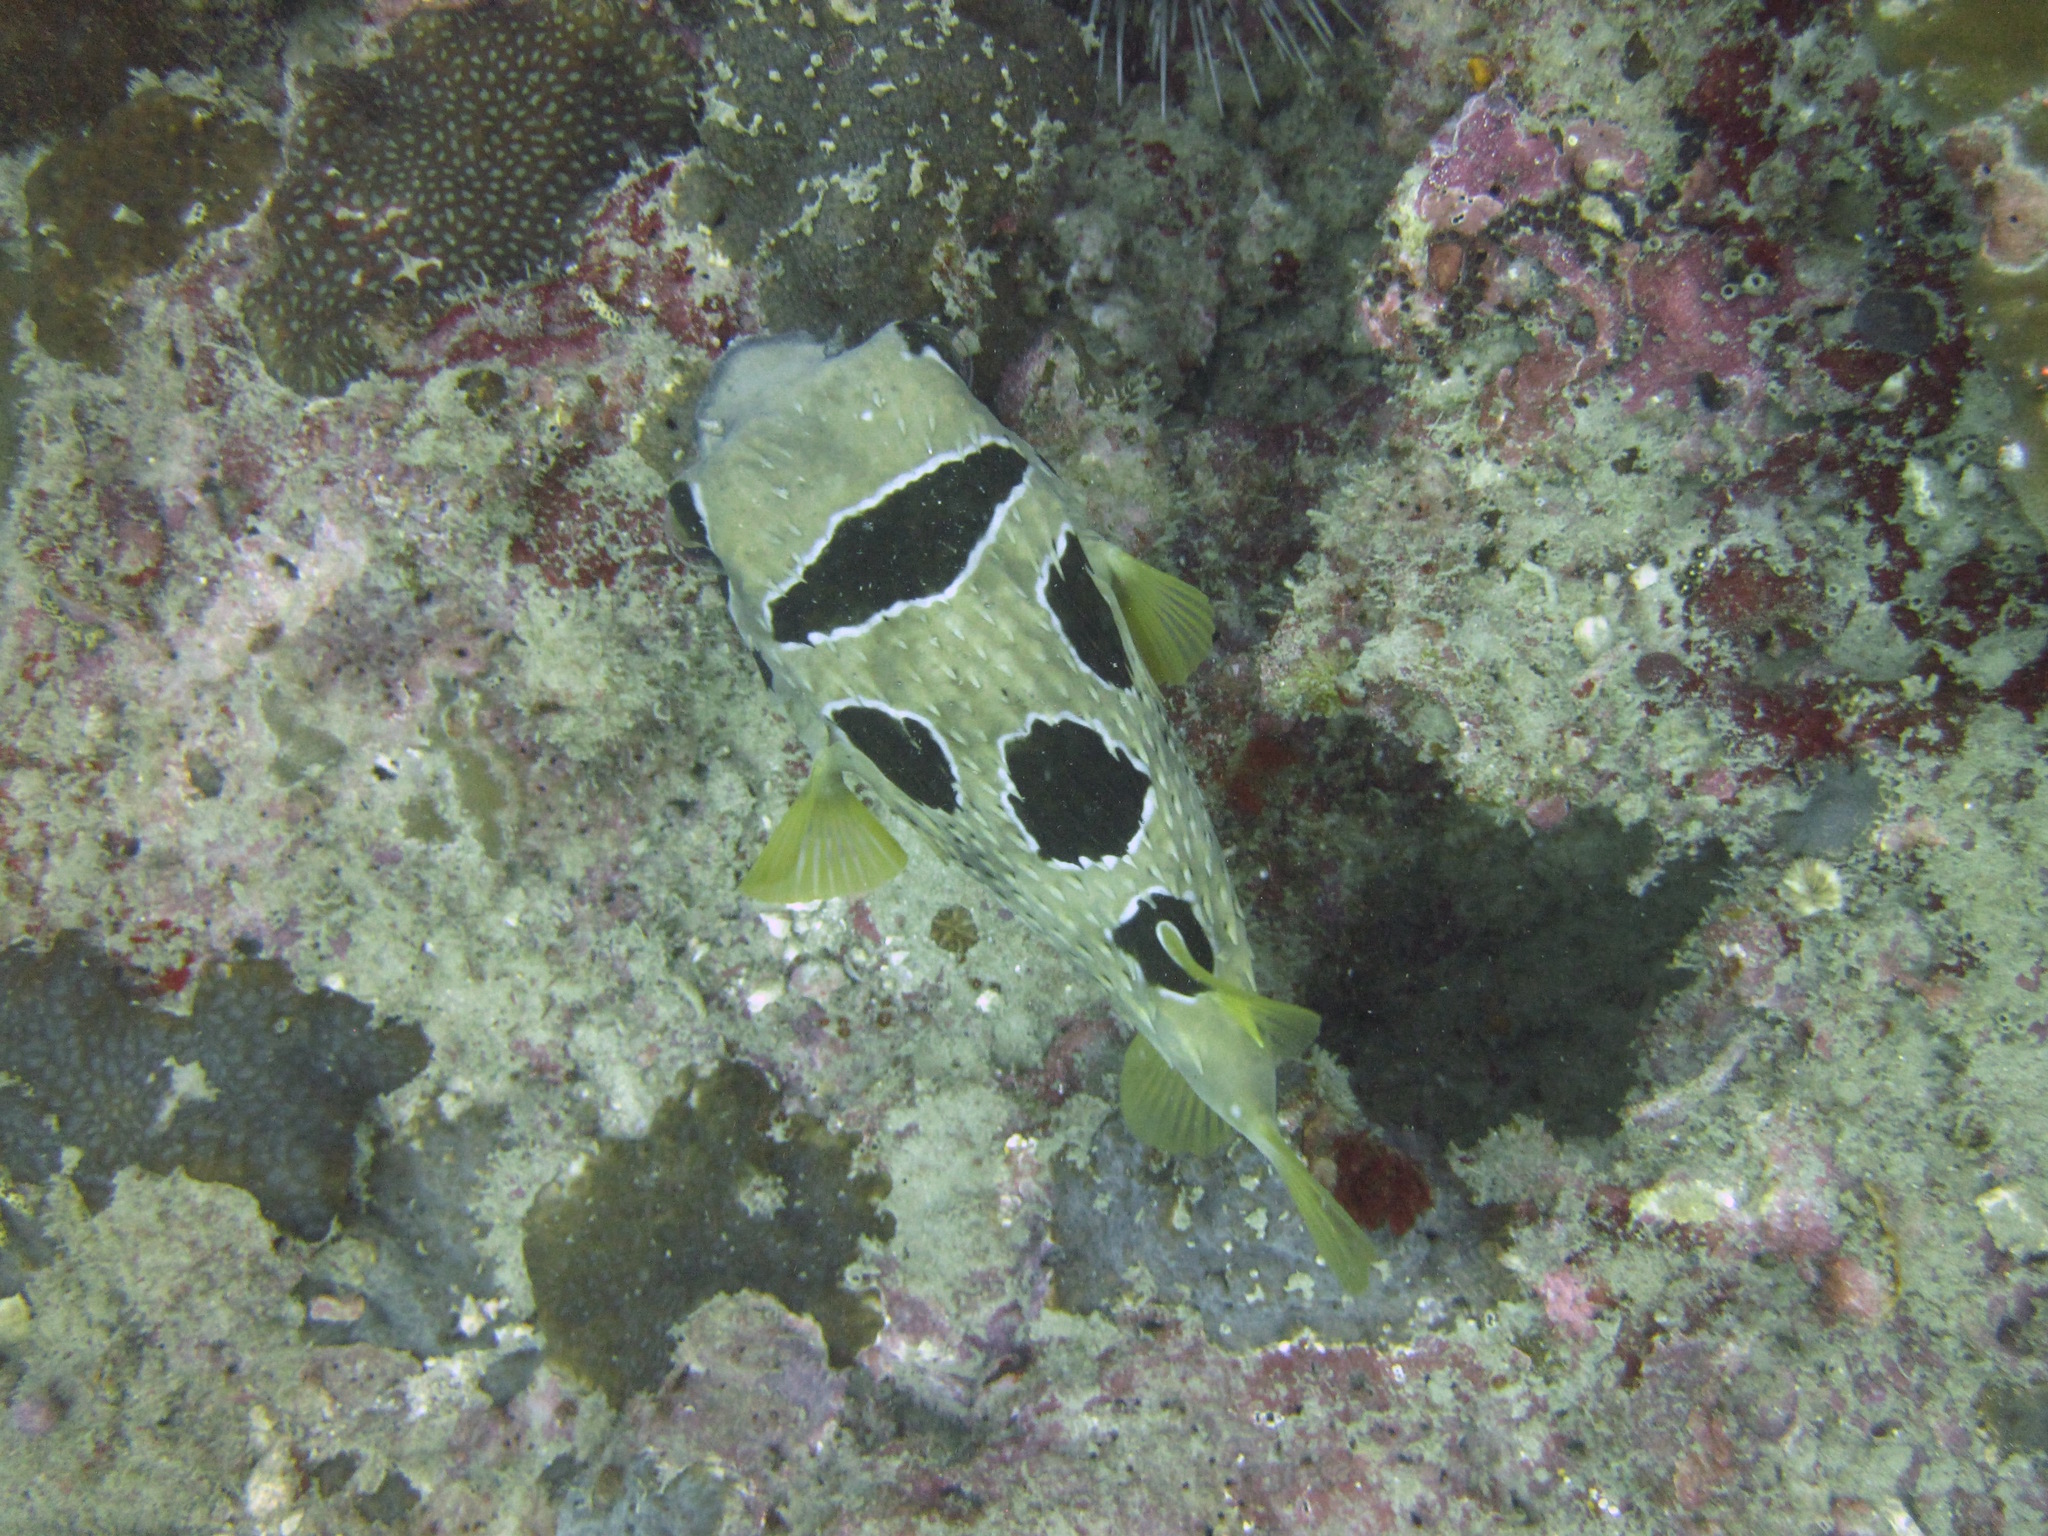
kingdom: Animalia
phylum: Chordata
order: Tetraodontiformes
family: Diodontidae
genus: Diodon
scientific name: Diodon liturosus
